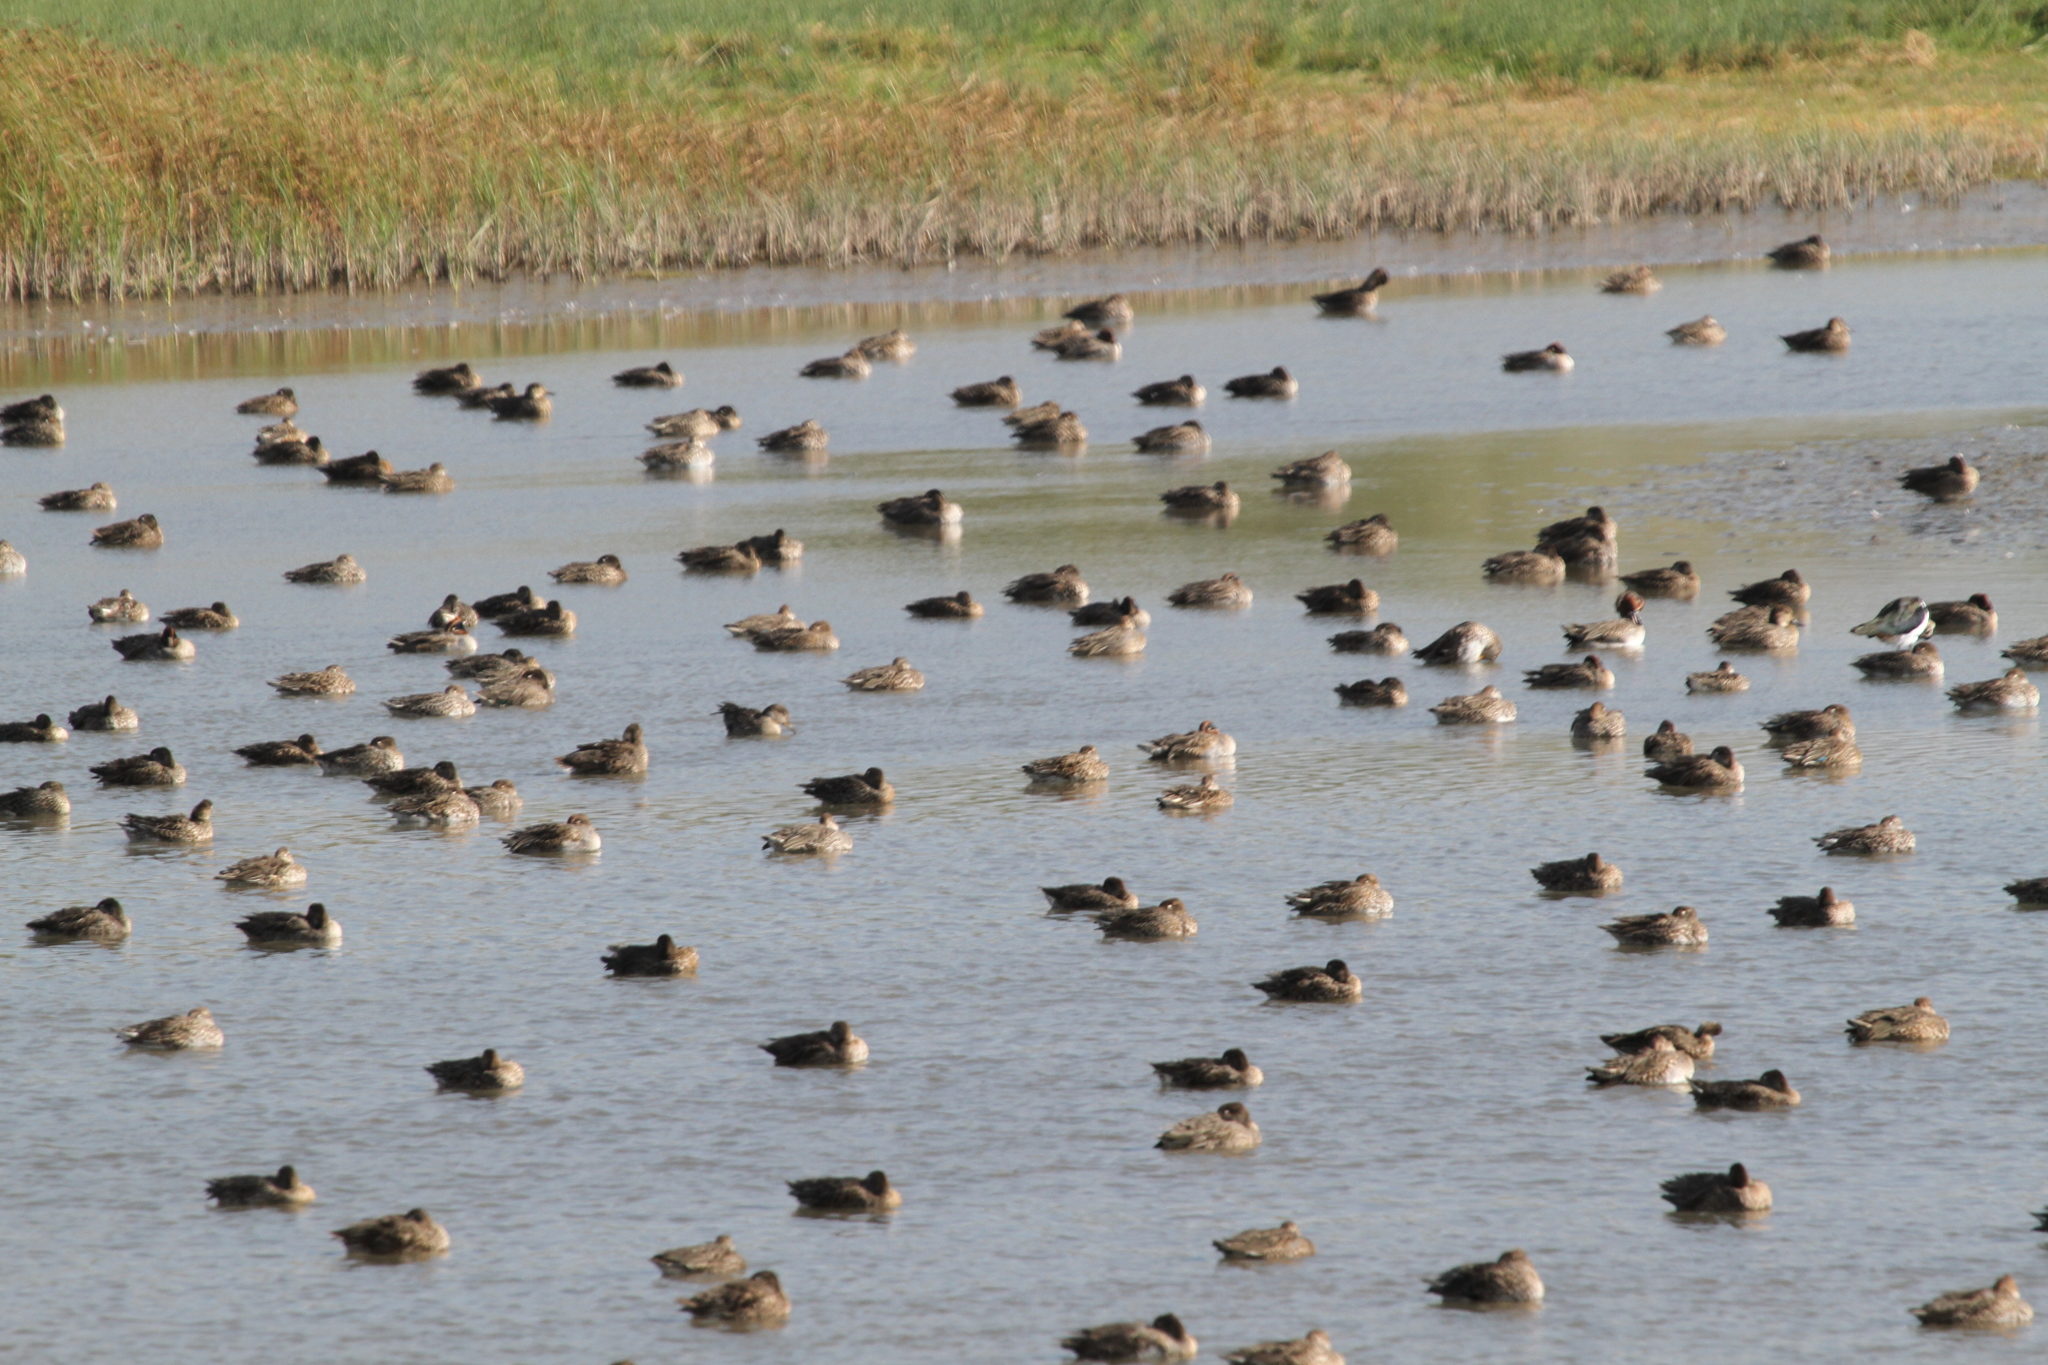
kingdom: Animalia
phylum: Chordata
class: Aves
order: Anseriformes
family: Anatidae
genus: Anas
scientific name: Anas crecca
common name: Eurasian teal
